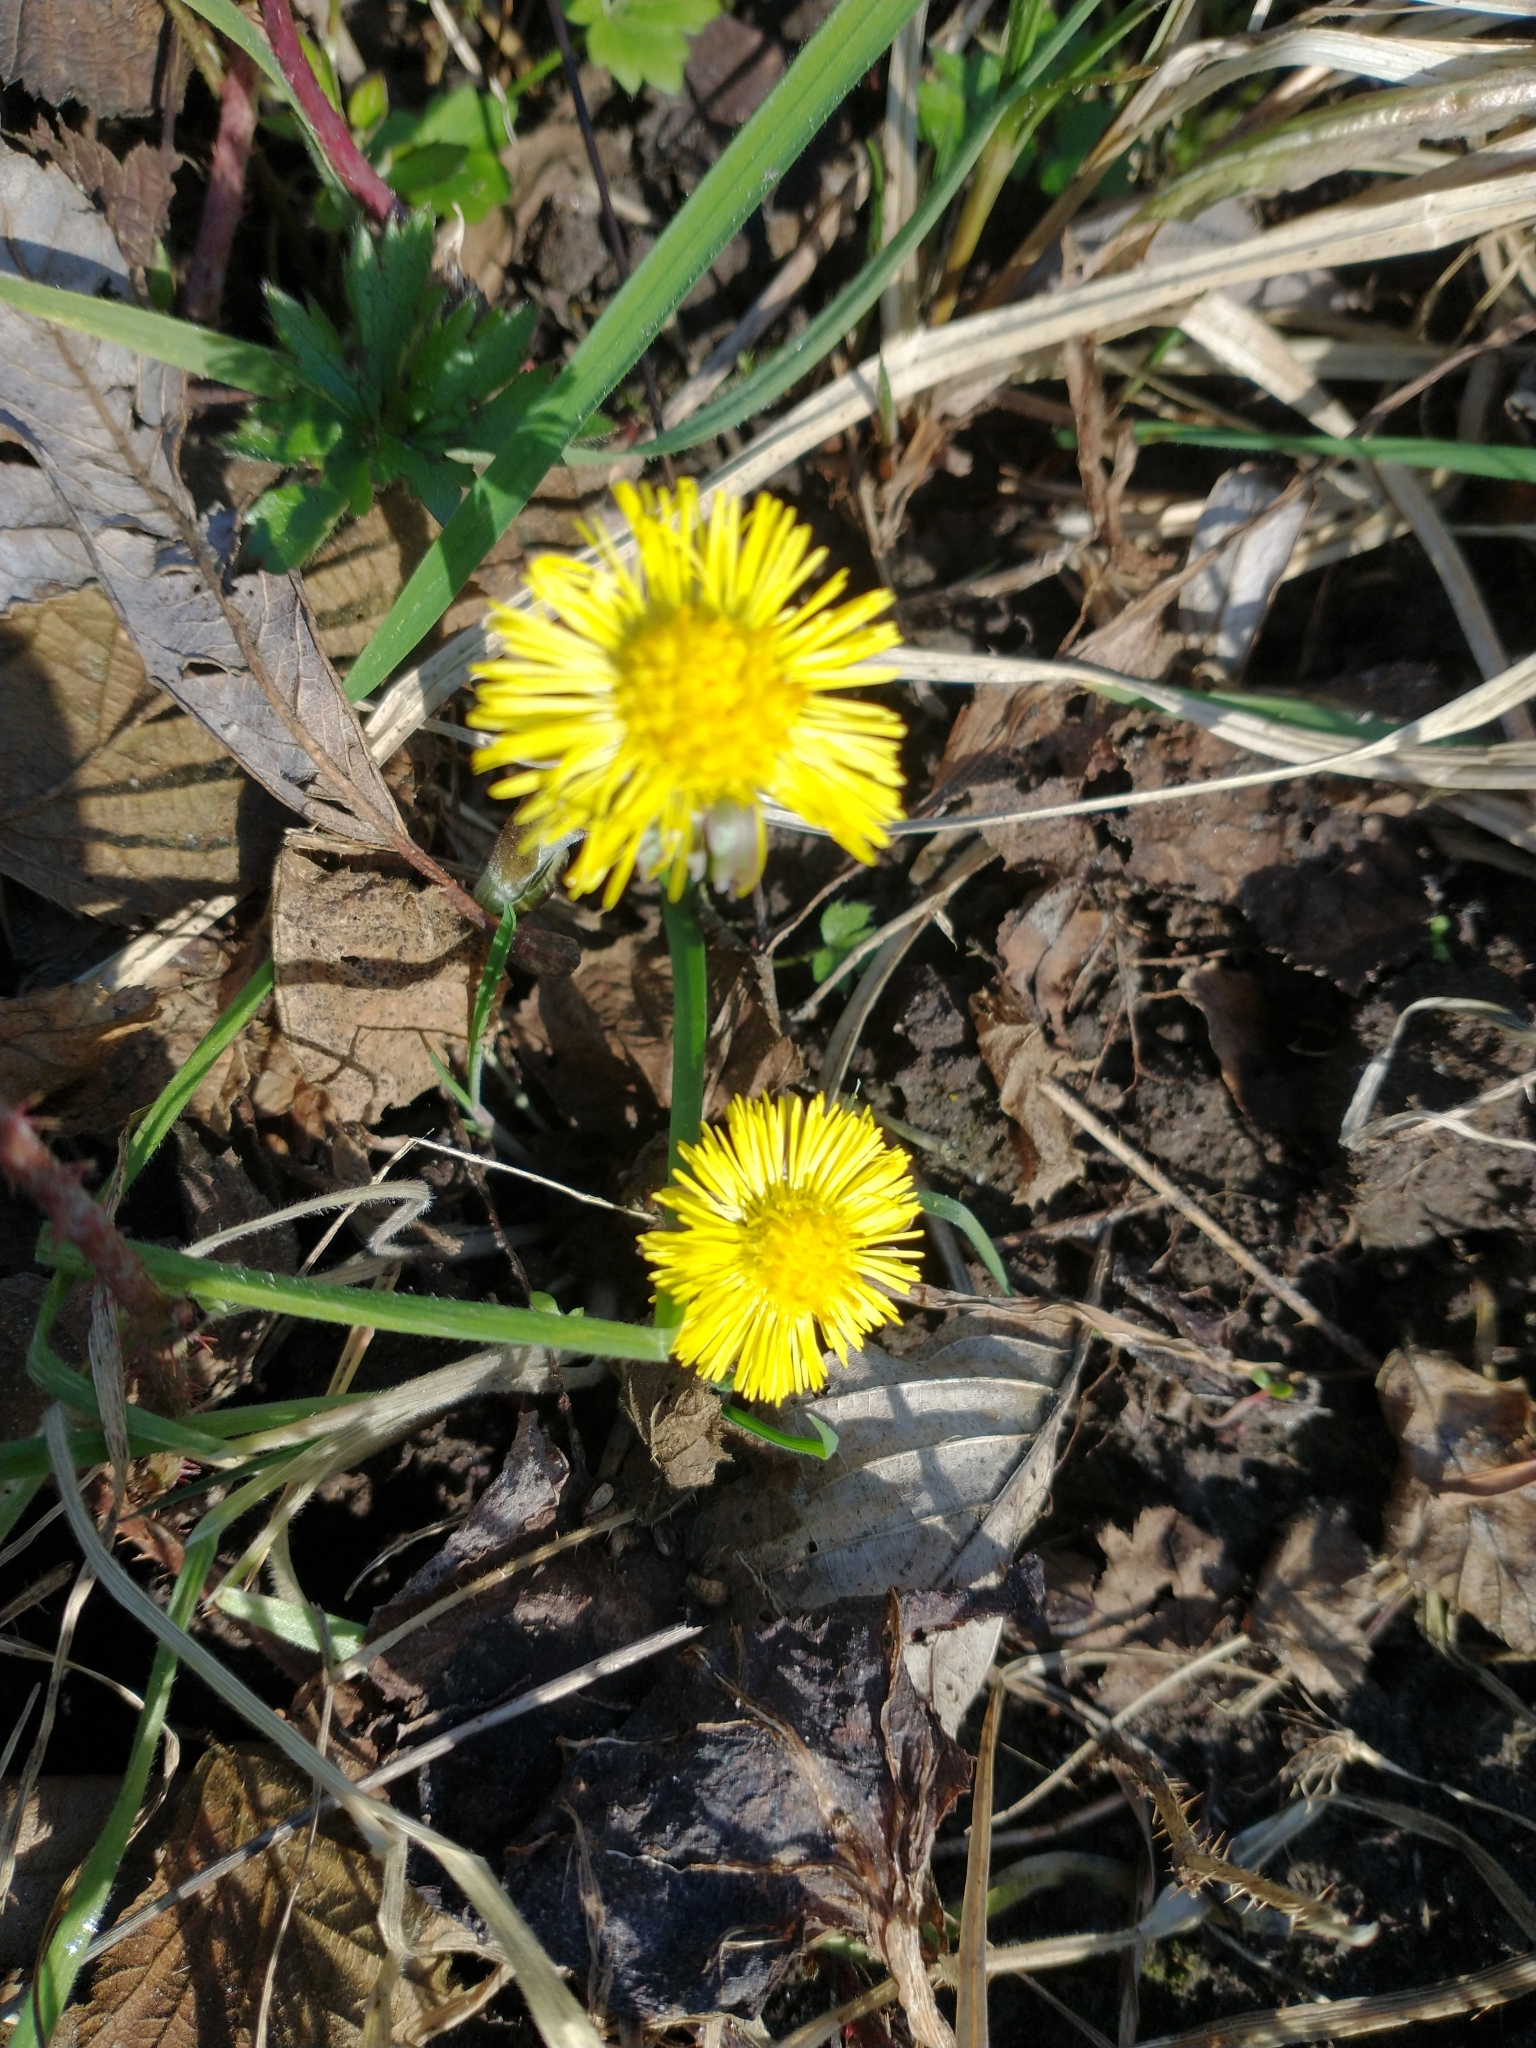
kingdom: Plantae
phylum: Tracheophyta
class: Magnoliopsida
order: Asterales
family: Asteraceae
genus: Tussilago
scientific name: Tussilago farfara
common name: Coltsfoot
